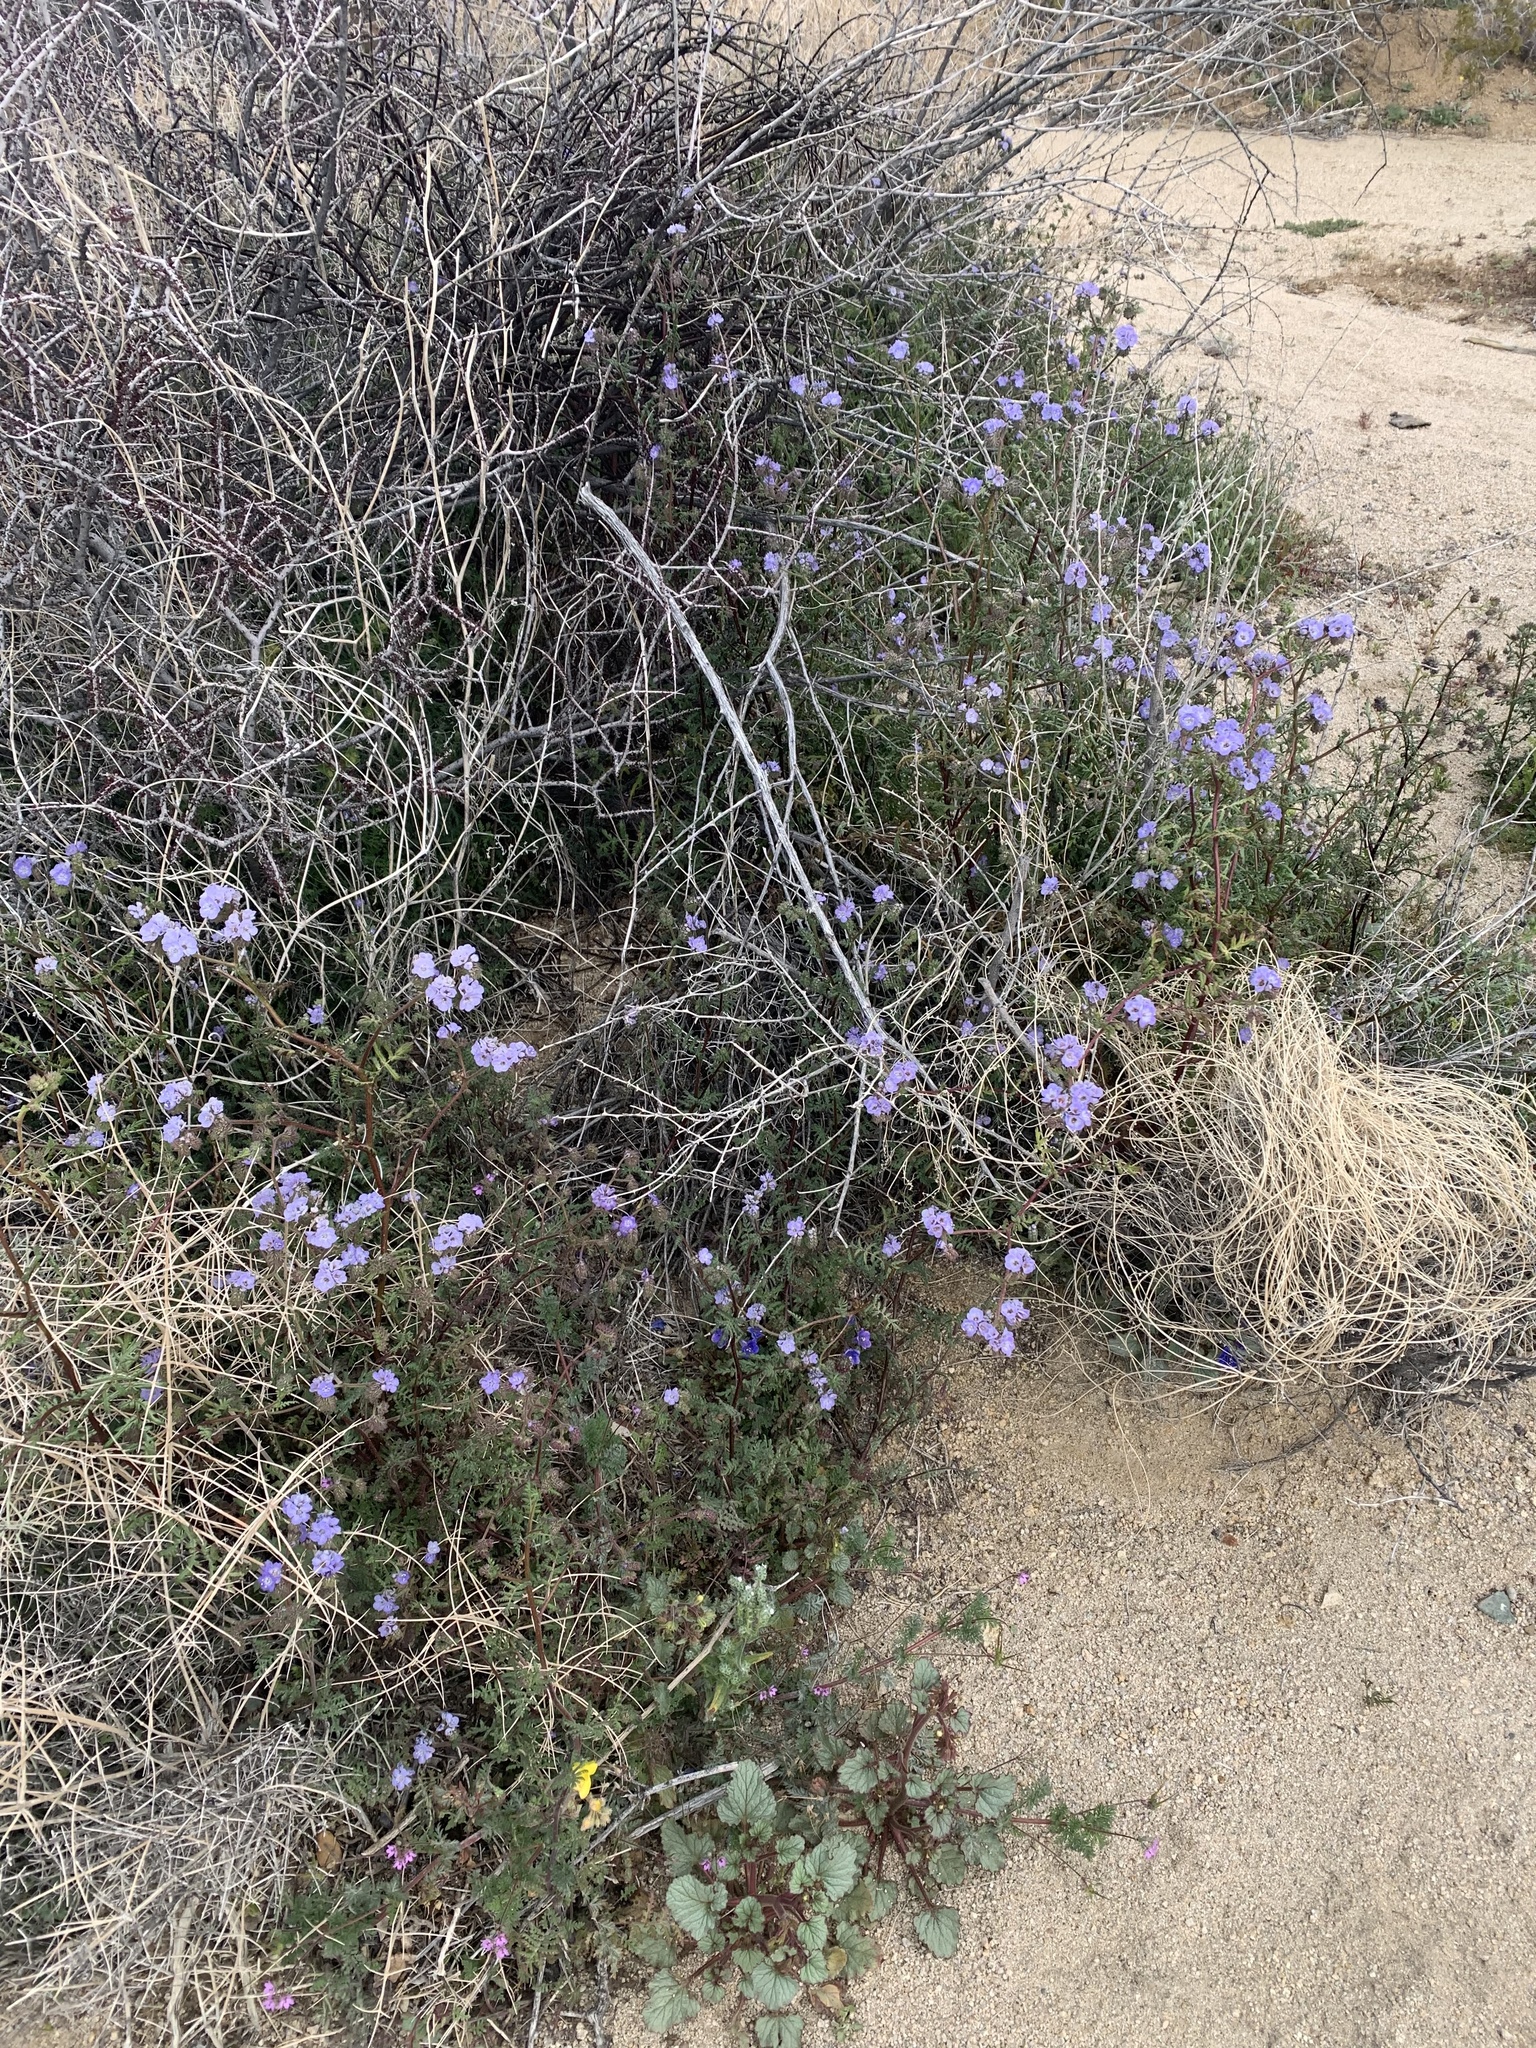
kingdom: Plantae
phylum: Tracheophyta
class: Magnoliopsida
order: Boraginales
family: Hydrophyllaceae
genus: Phacelia
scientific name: Phacelia distans
